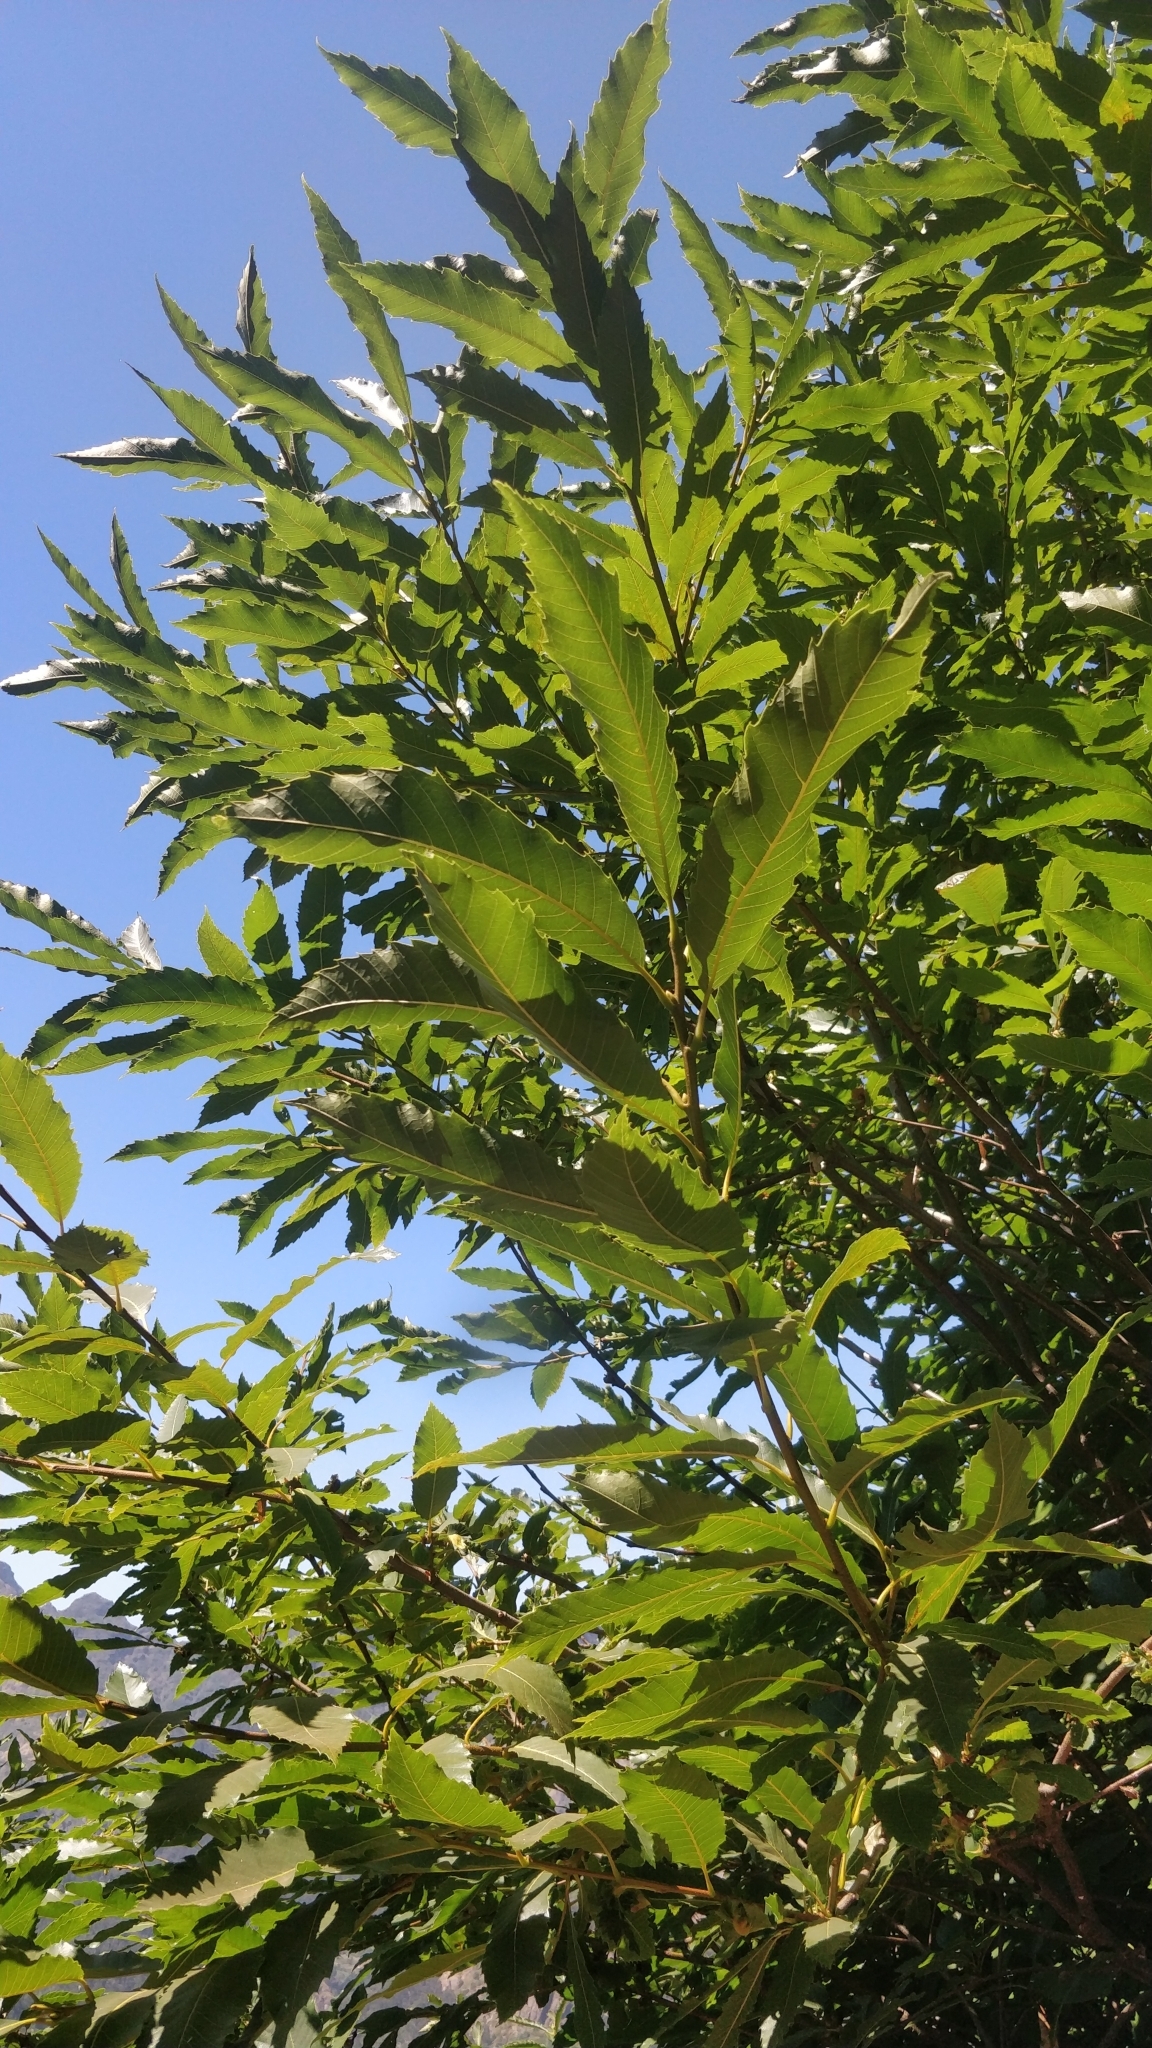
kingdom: Plantae
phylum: Tracheophyta
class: Magnoliopsida
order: Fagales
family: Fagaceae
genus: Castanea
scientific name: Castanea sativa
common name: Sweet chestnut
